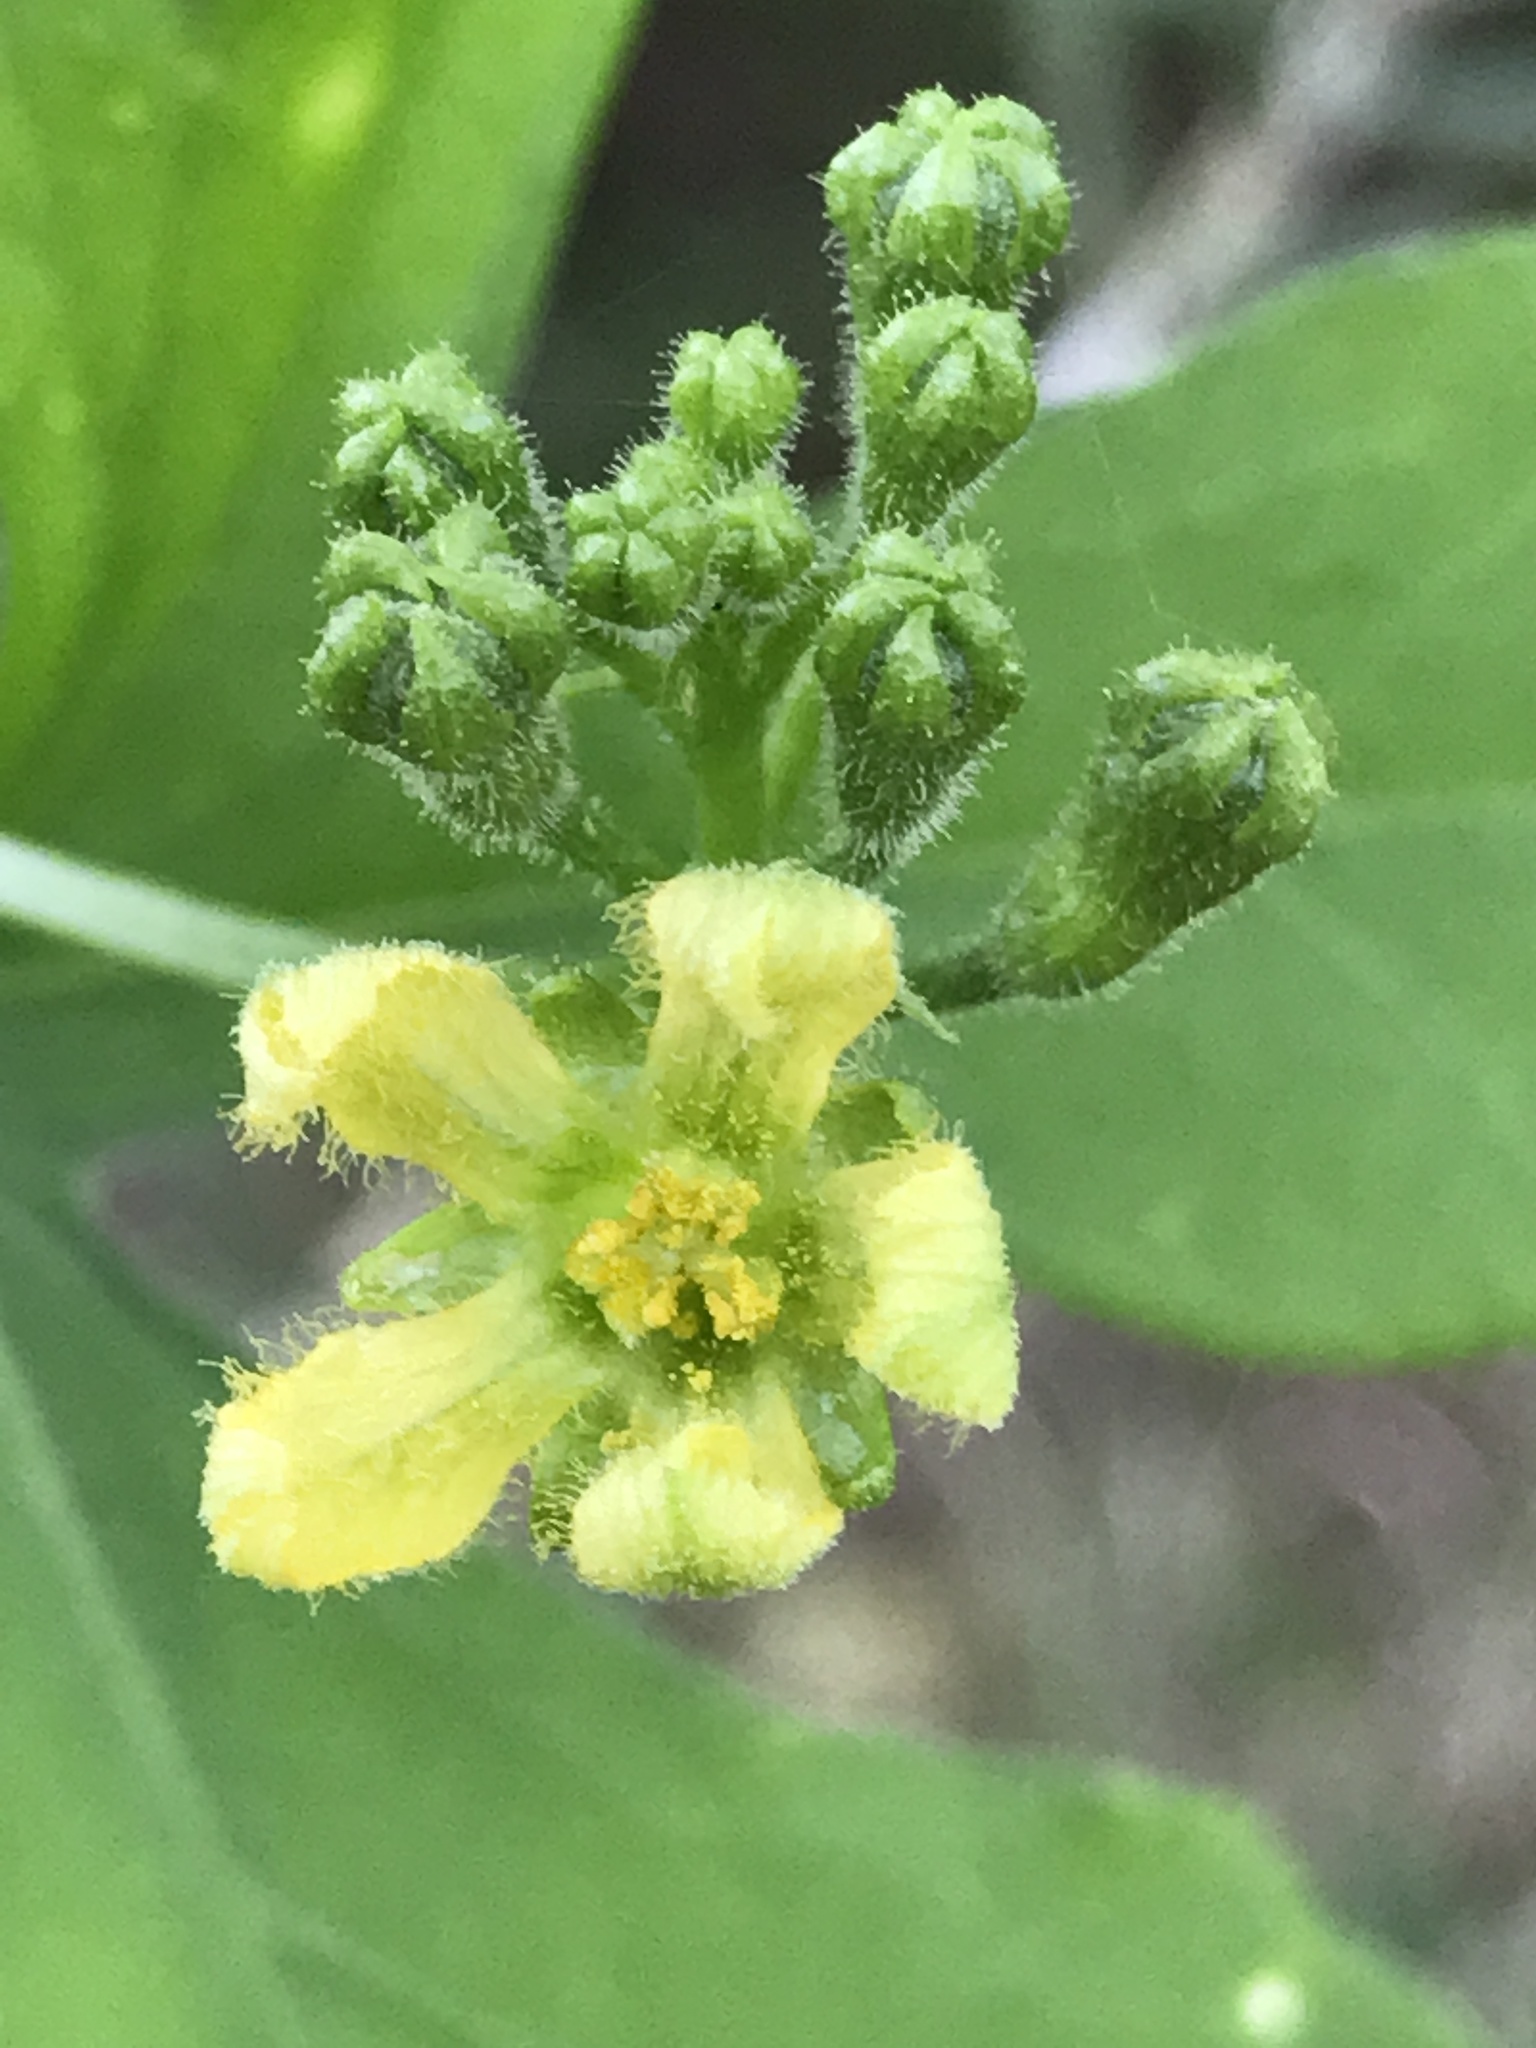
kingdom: Plantae
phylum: Tracheophyta
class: Magnoliopsida
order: Cucurbitales
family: Cucurbitaceae
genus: Ibervillea
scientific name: Ibervillea lindheimeri
